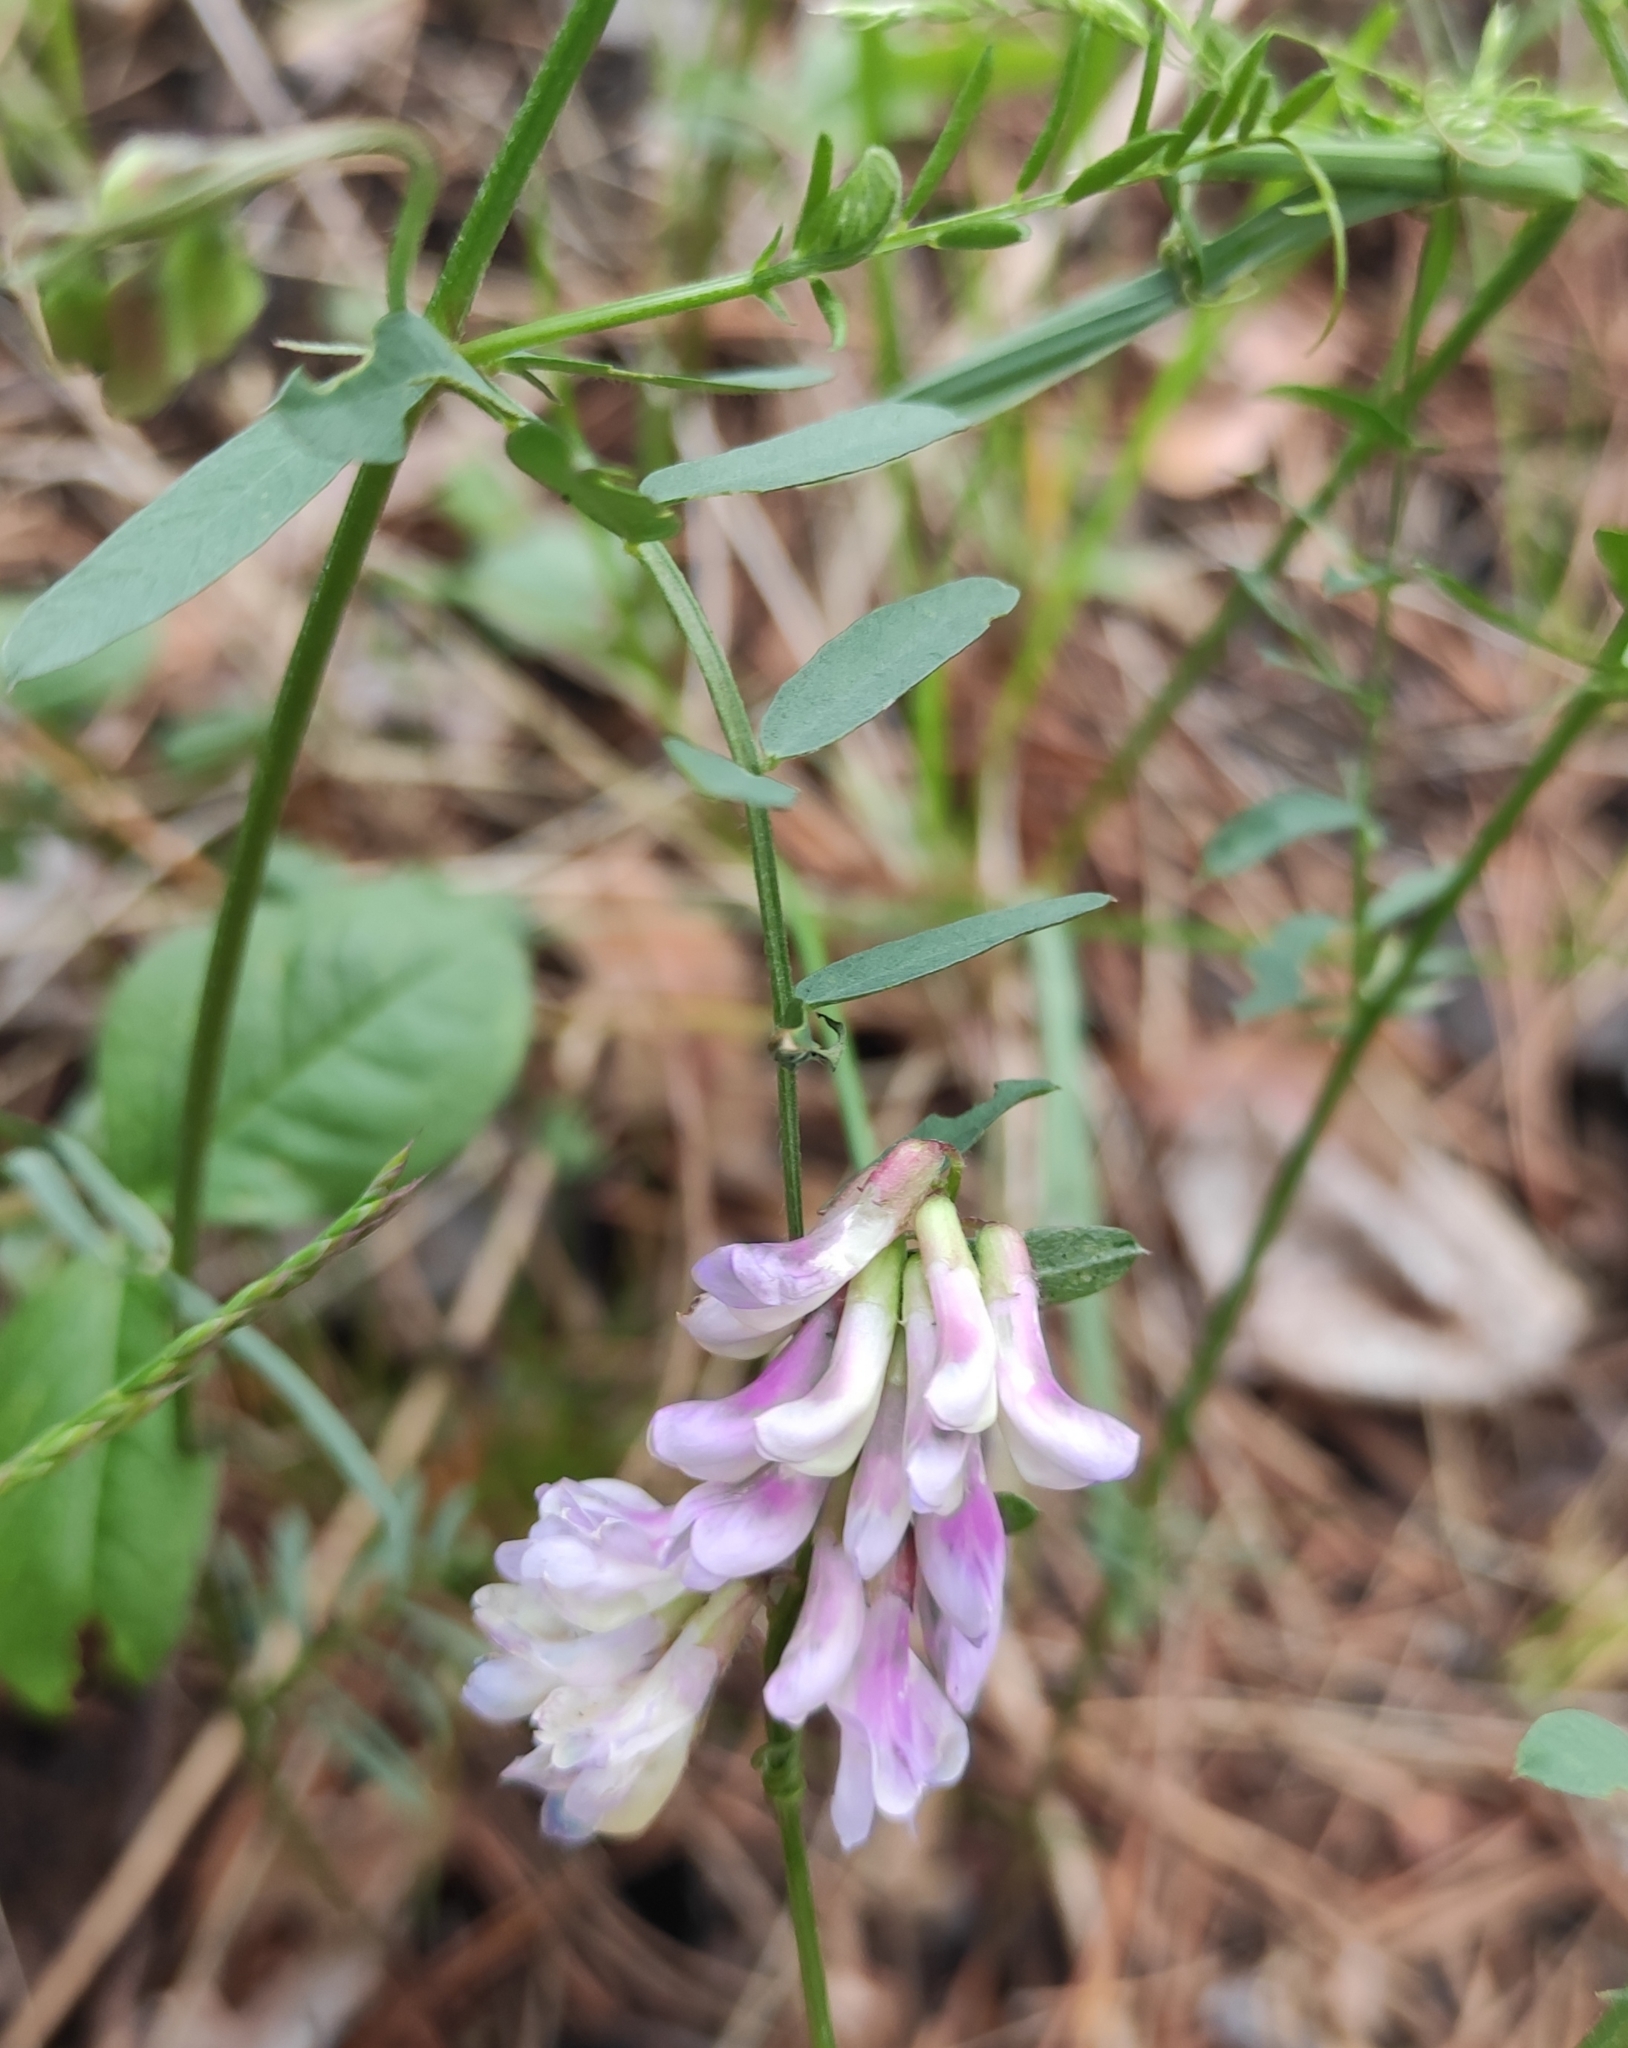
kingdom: Plantae
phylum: Tracheophyta
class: Magnoliopsida
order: Fabales
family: Fabaceae
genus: Vicia
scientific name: Vicia cracca
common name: Bird vetch
